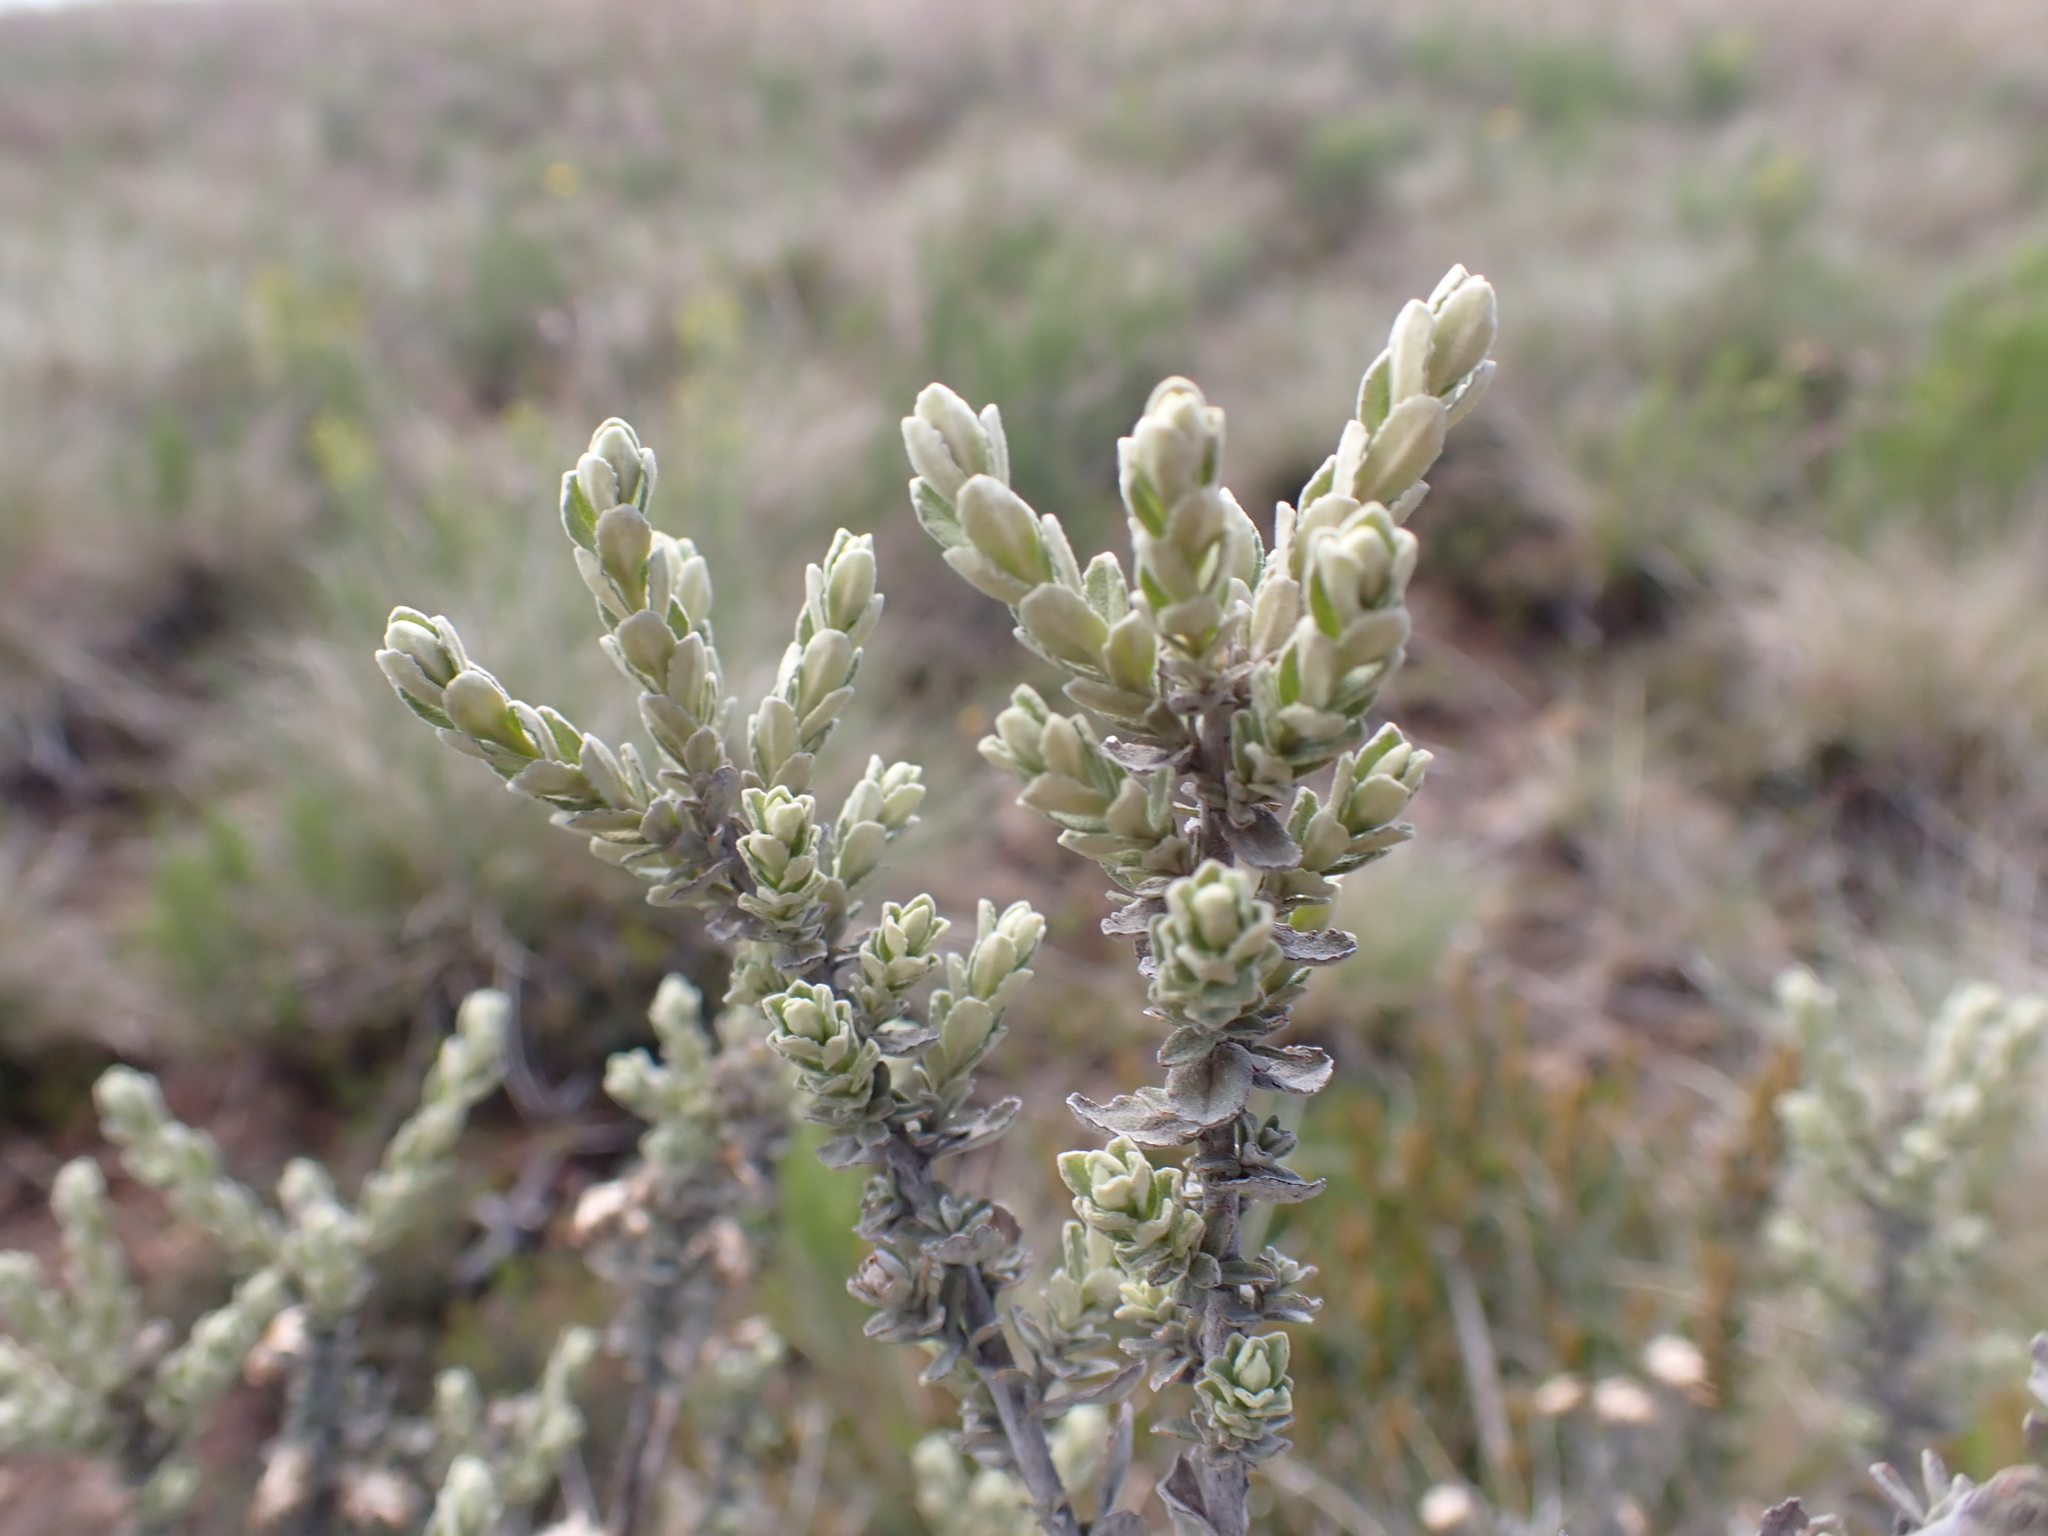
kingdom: Plantae
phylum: Tracheophyta
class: Magnoliopsida
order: Asterales
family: Asteraceae
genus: Olearia
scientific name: Olearia brevipedunculata
